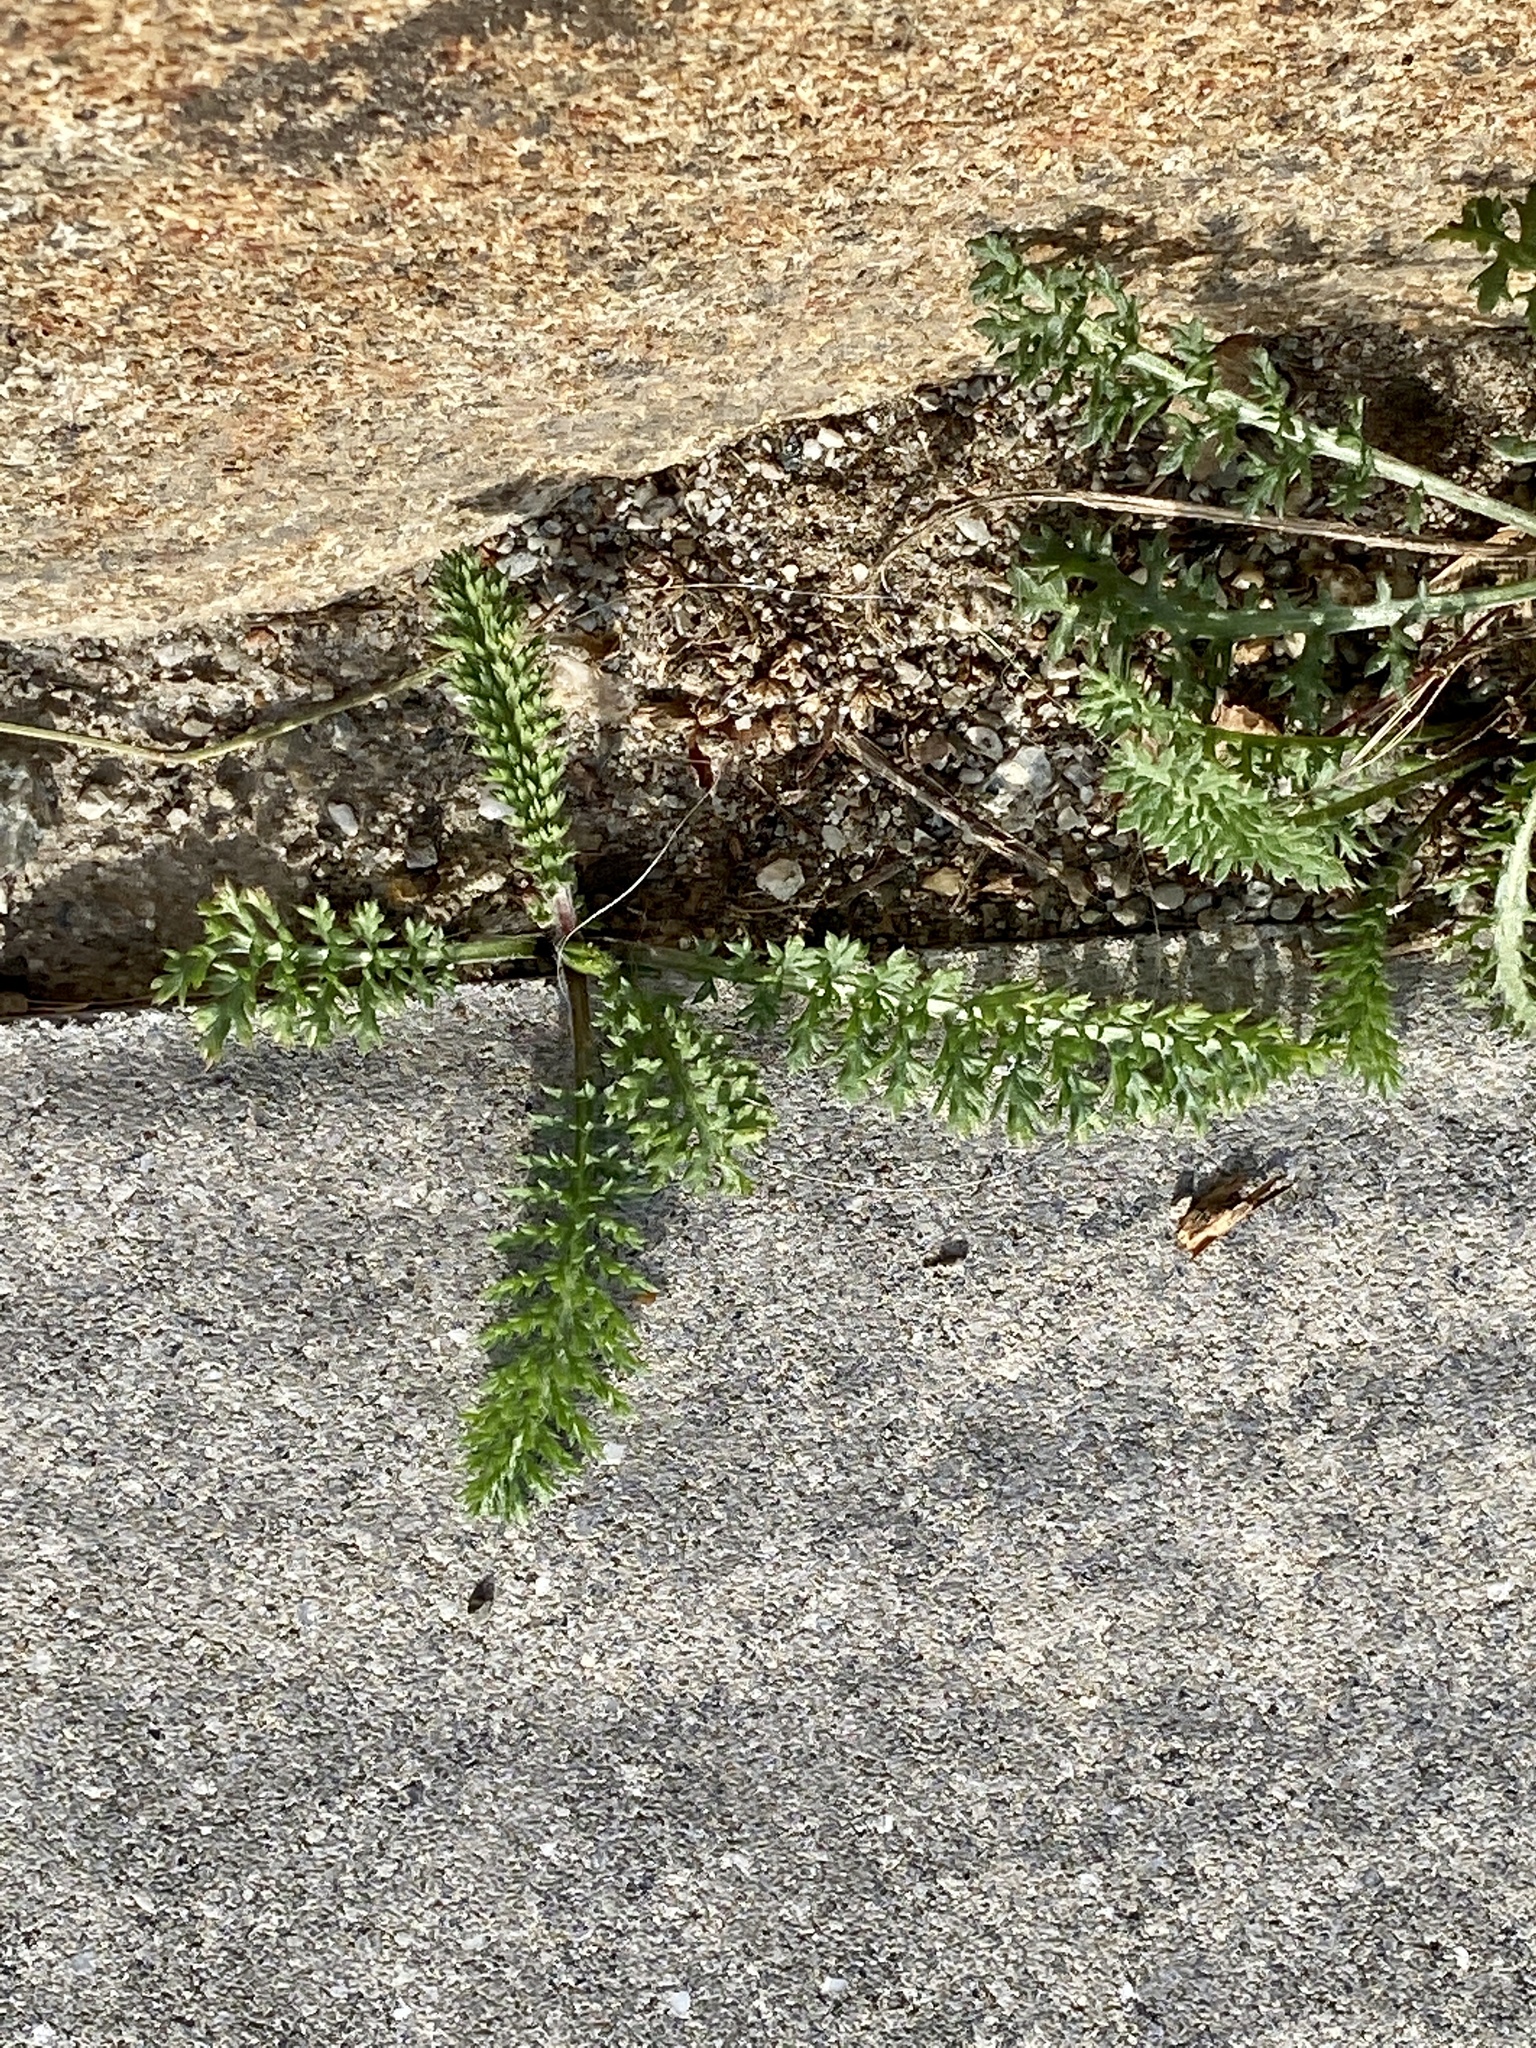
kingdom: Plantae
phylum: Tracheophyta
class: Magnoliopsida
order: Asterales
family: Asteraceae
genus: Achillea
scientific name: Achillea millefolium
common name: Yarrow
